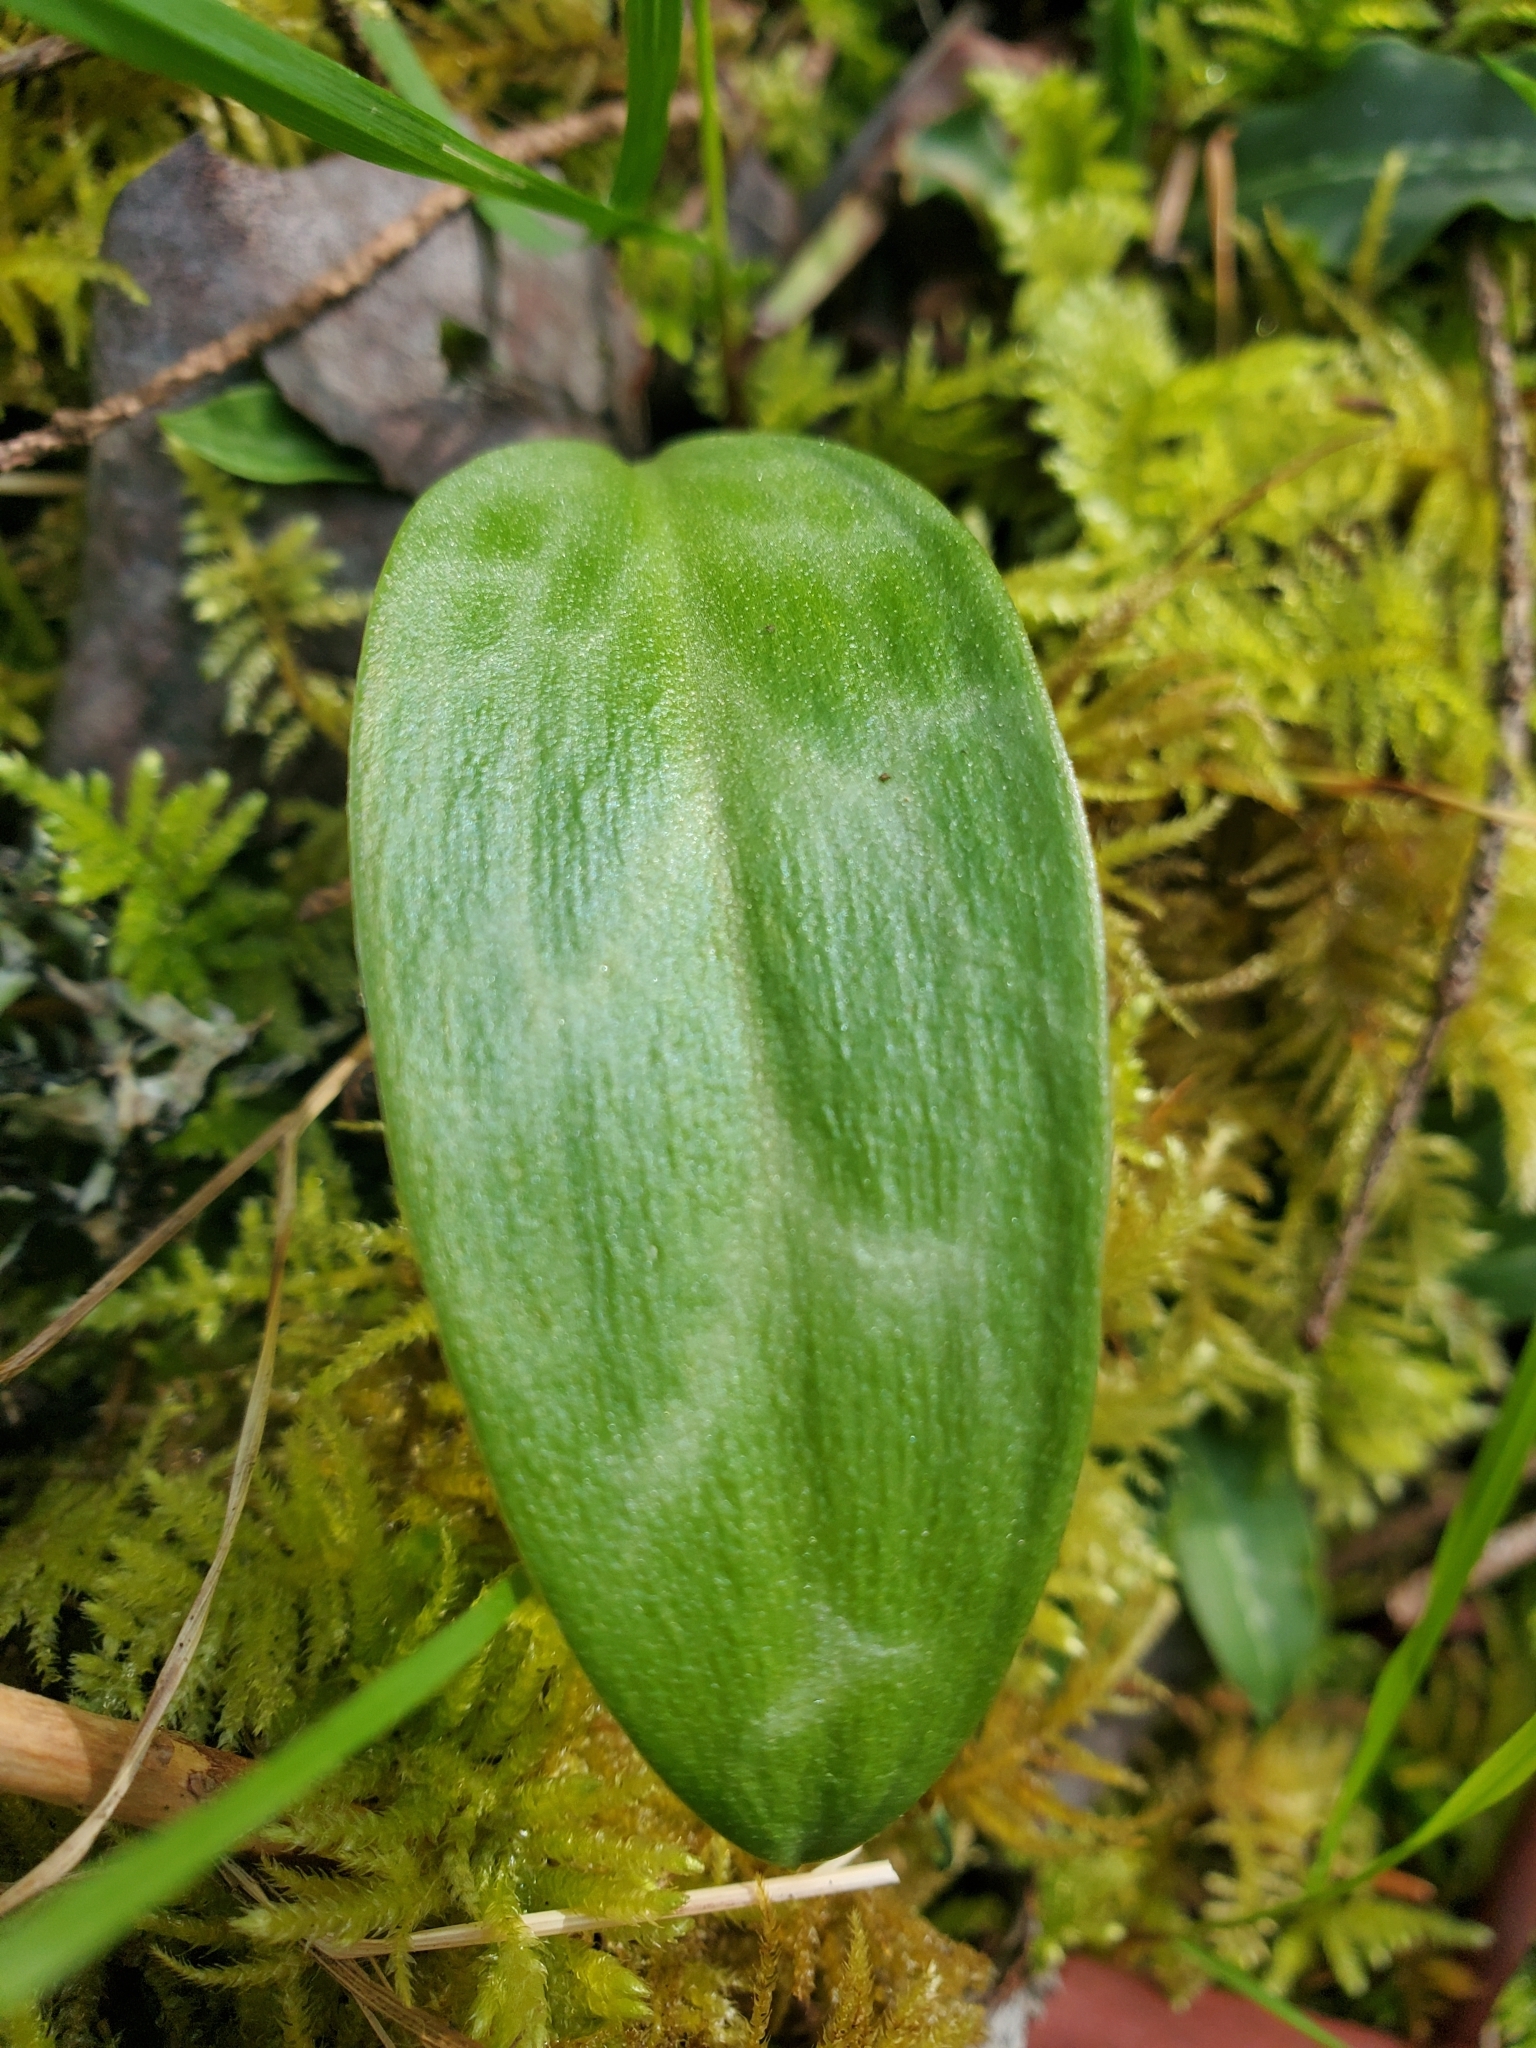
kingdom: Plantae
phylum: Tracheophyta
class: Liliopsida
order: Liliales
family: Liliaceae
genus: Erythronium
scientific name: Erythronium oregonum
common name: Giant adder's-tongue
